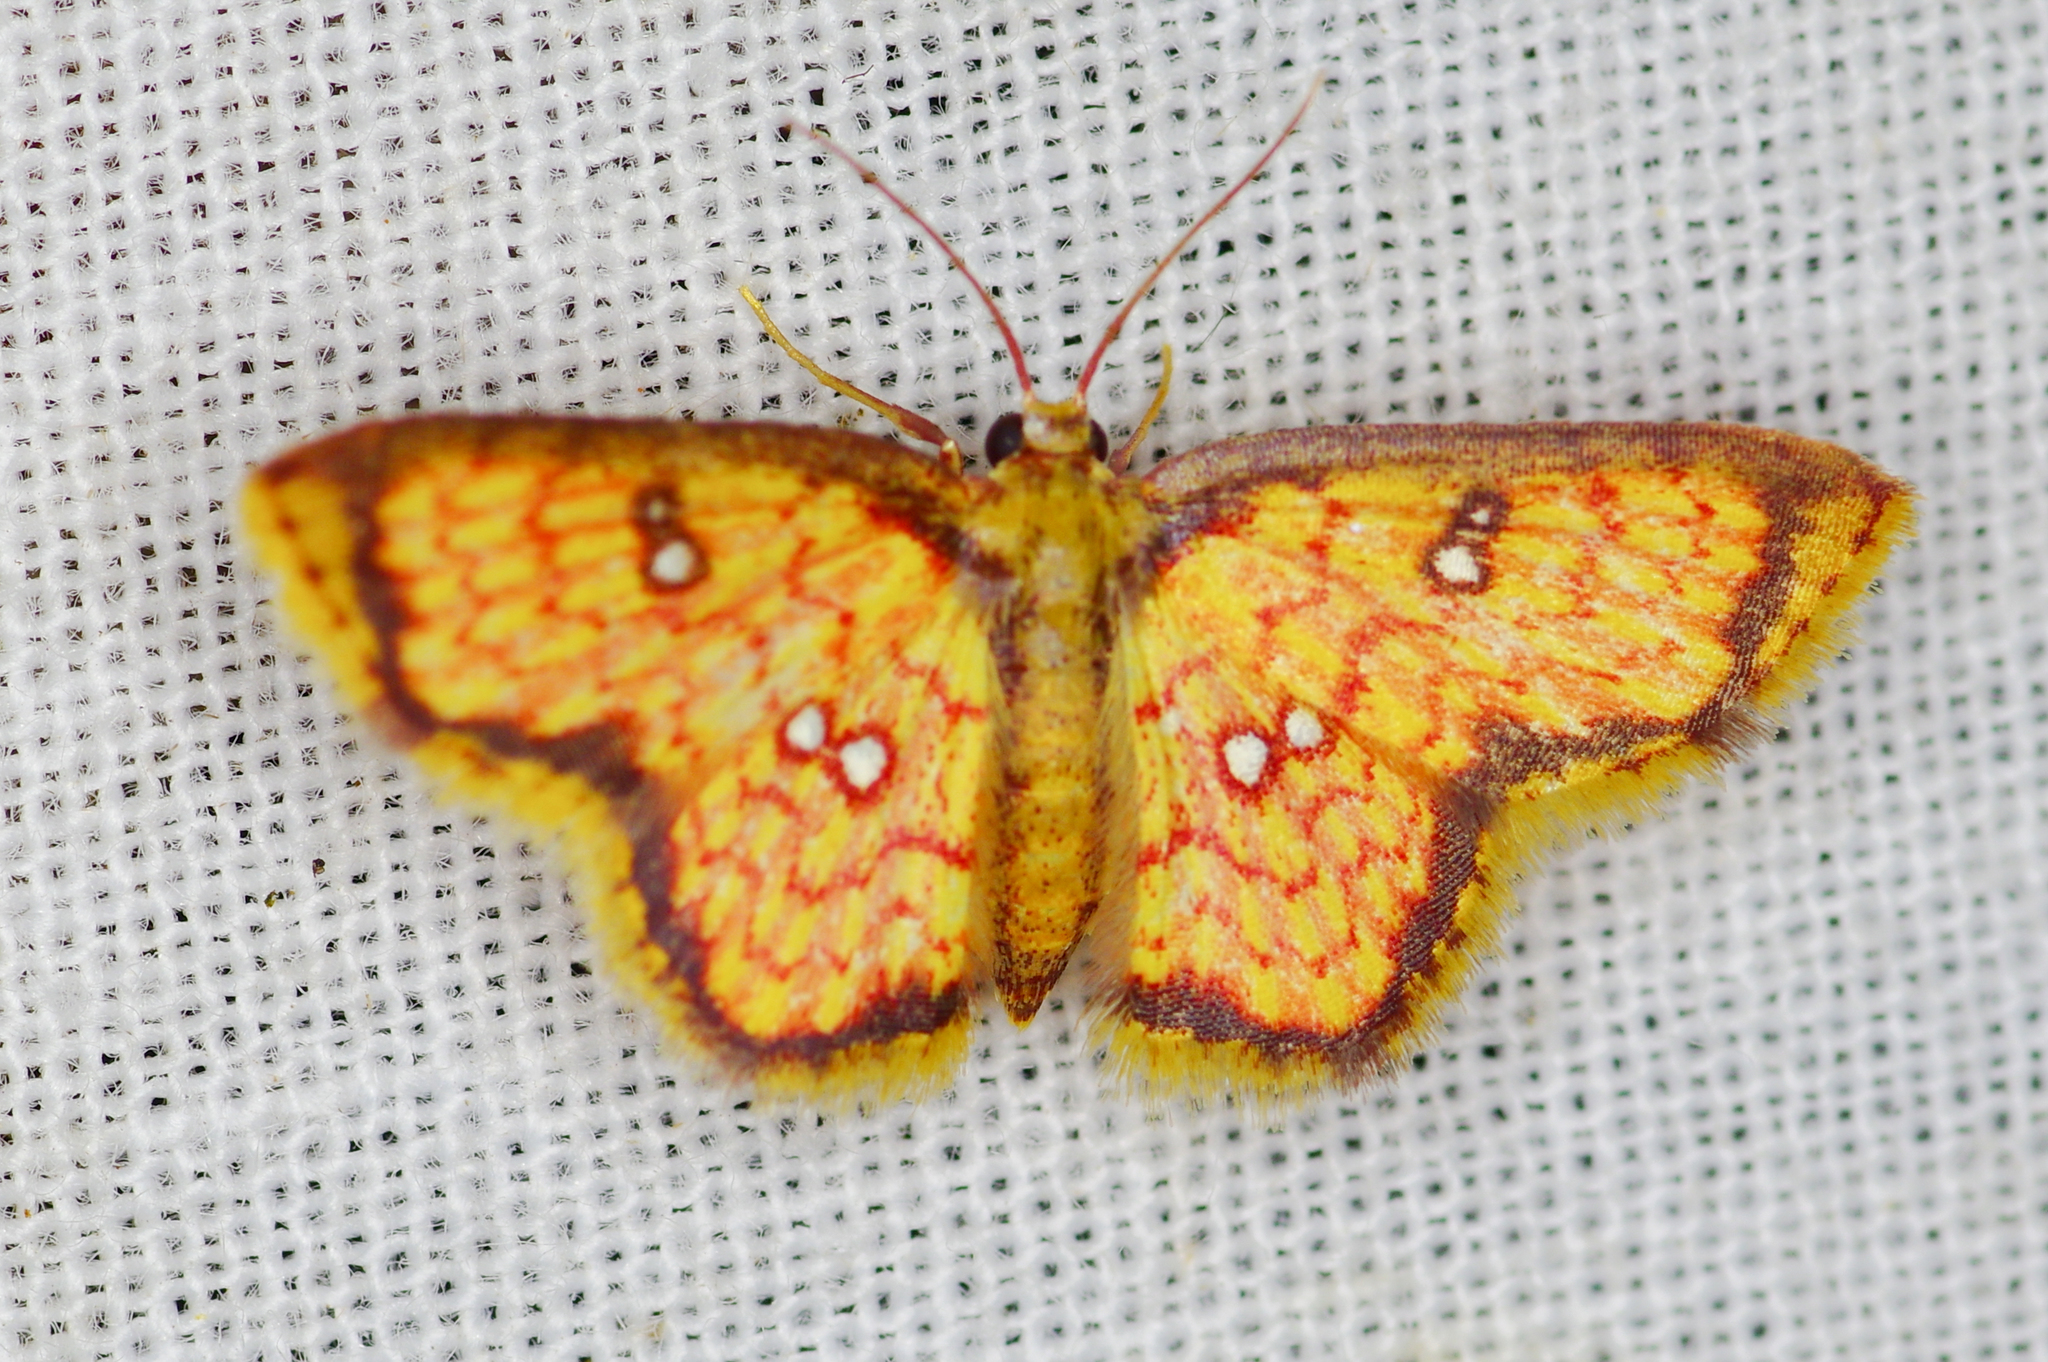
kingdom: Animalia
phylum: Arthropoda
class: Insecta
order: Lepidoptera
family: Geometridae
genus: Tricentra
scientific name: Tricentra brunneomarginata
